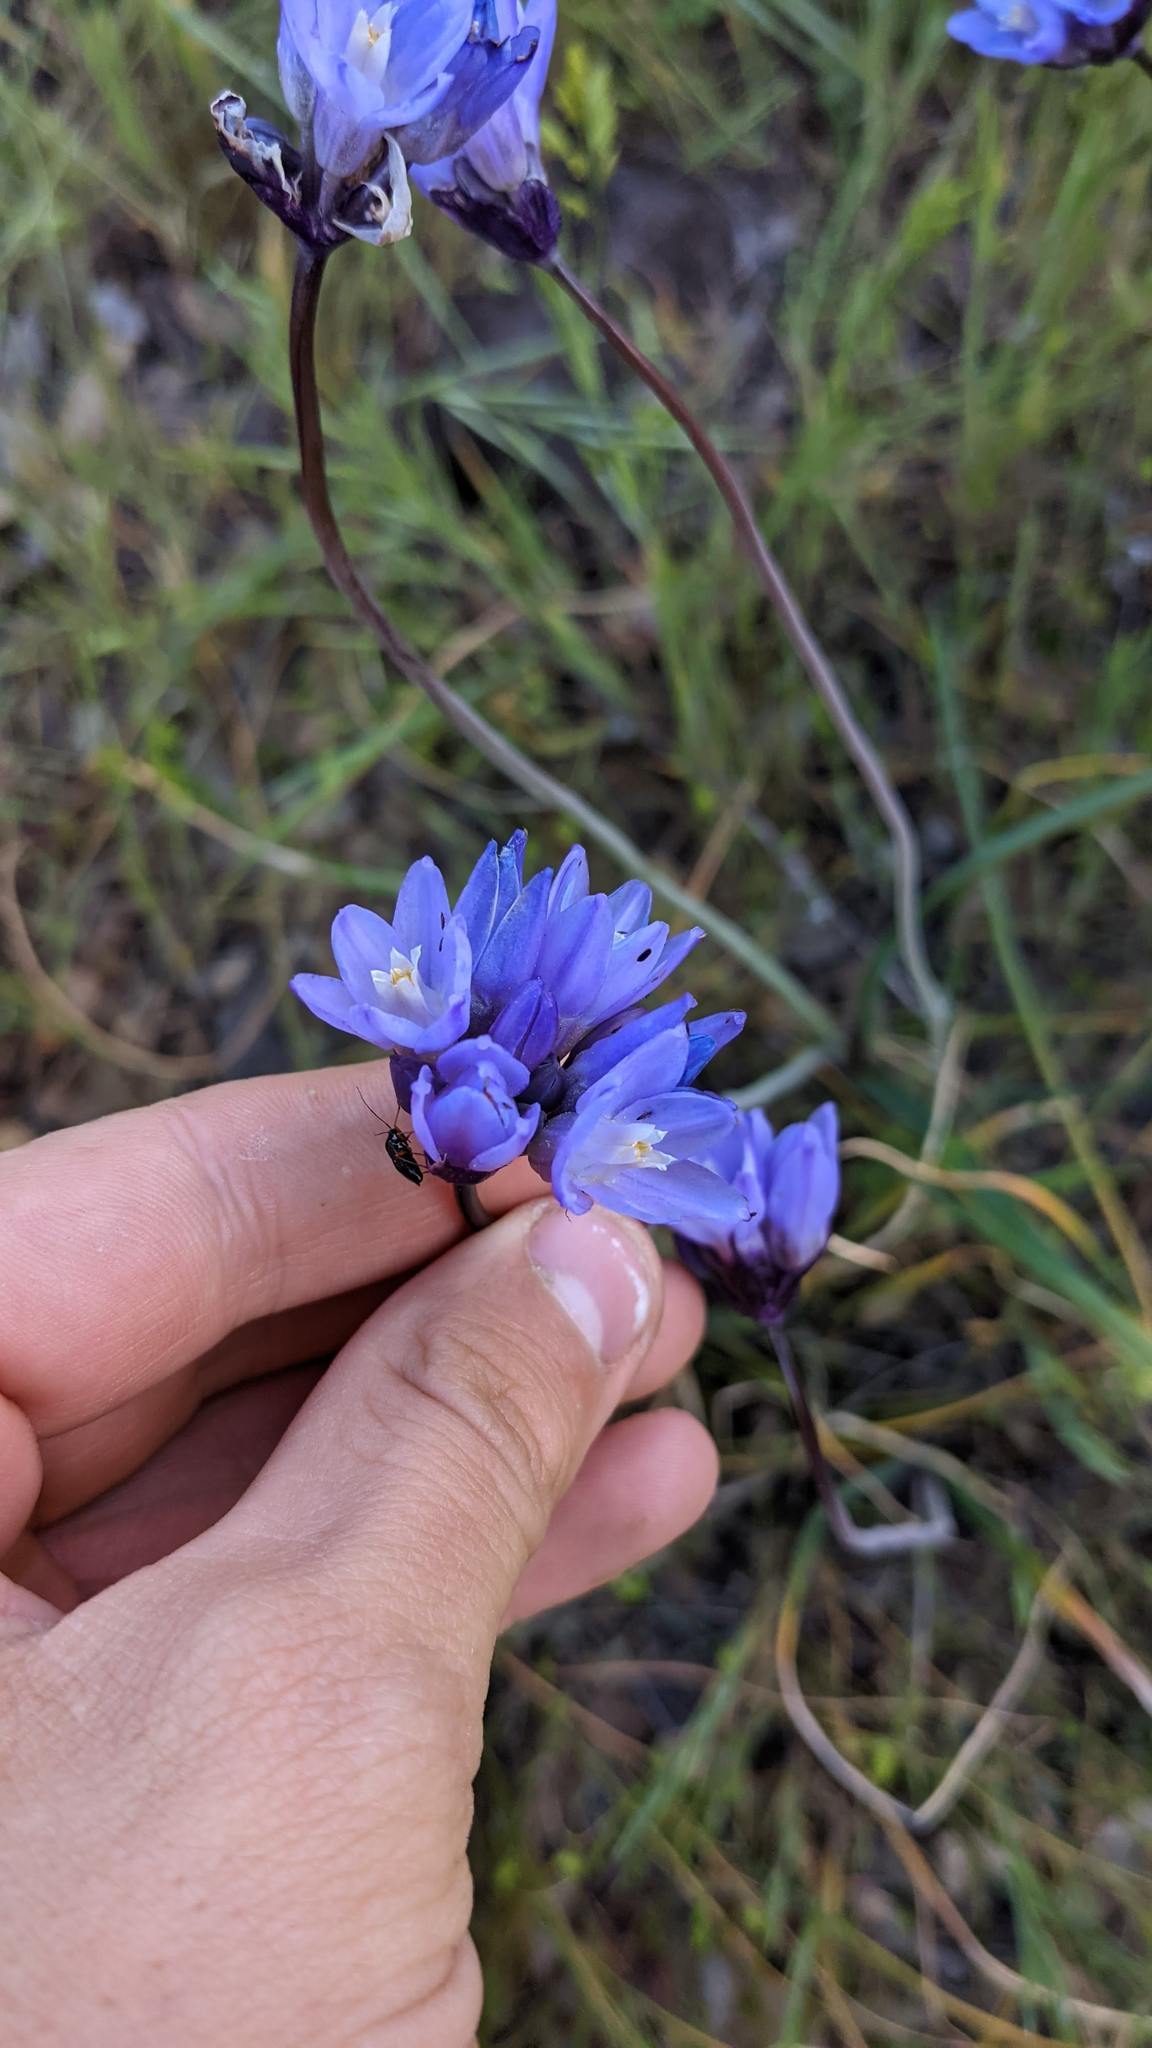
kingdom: Plantae
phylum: Tracheophyta
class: Liliopsida
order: Asparagales
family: Asparagaceae
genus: Dipterostemon
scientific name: Dipterostemon capitatus
